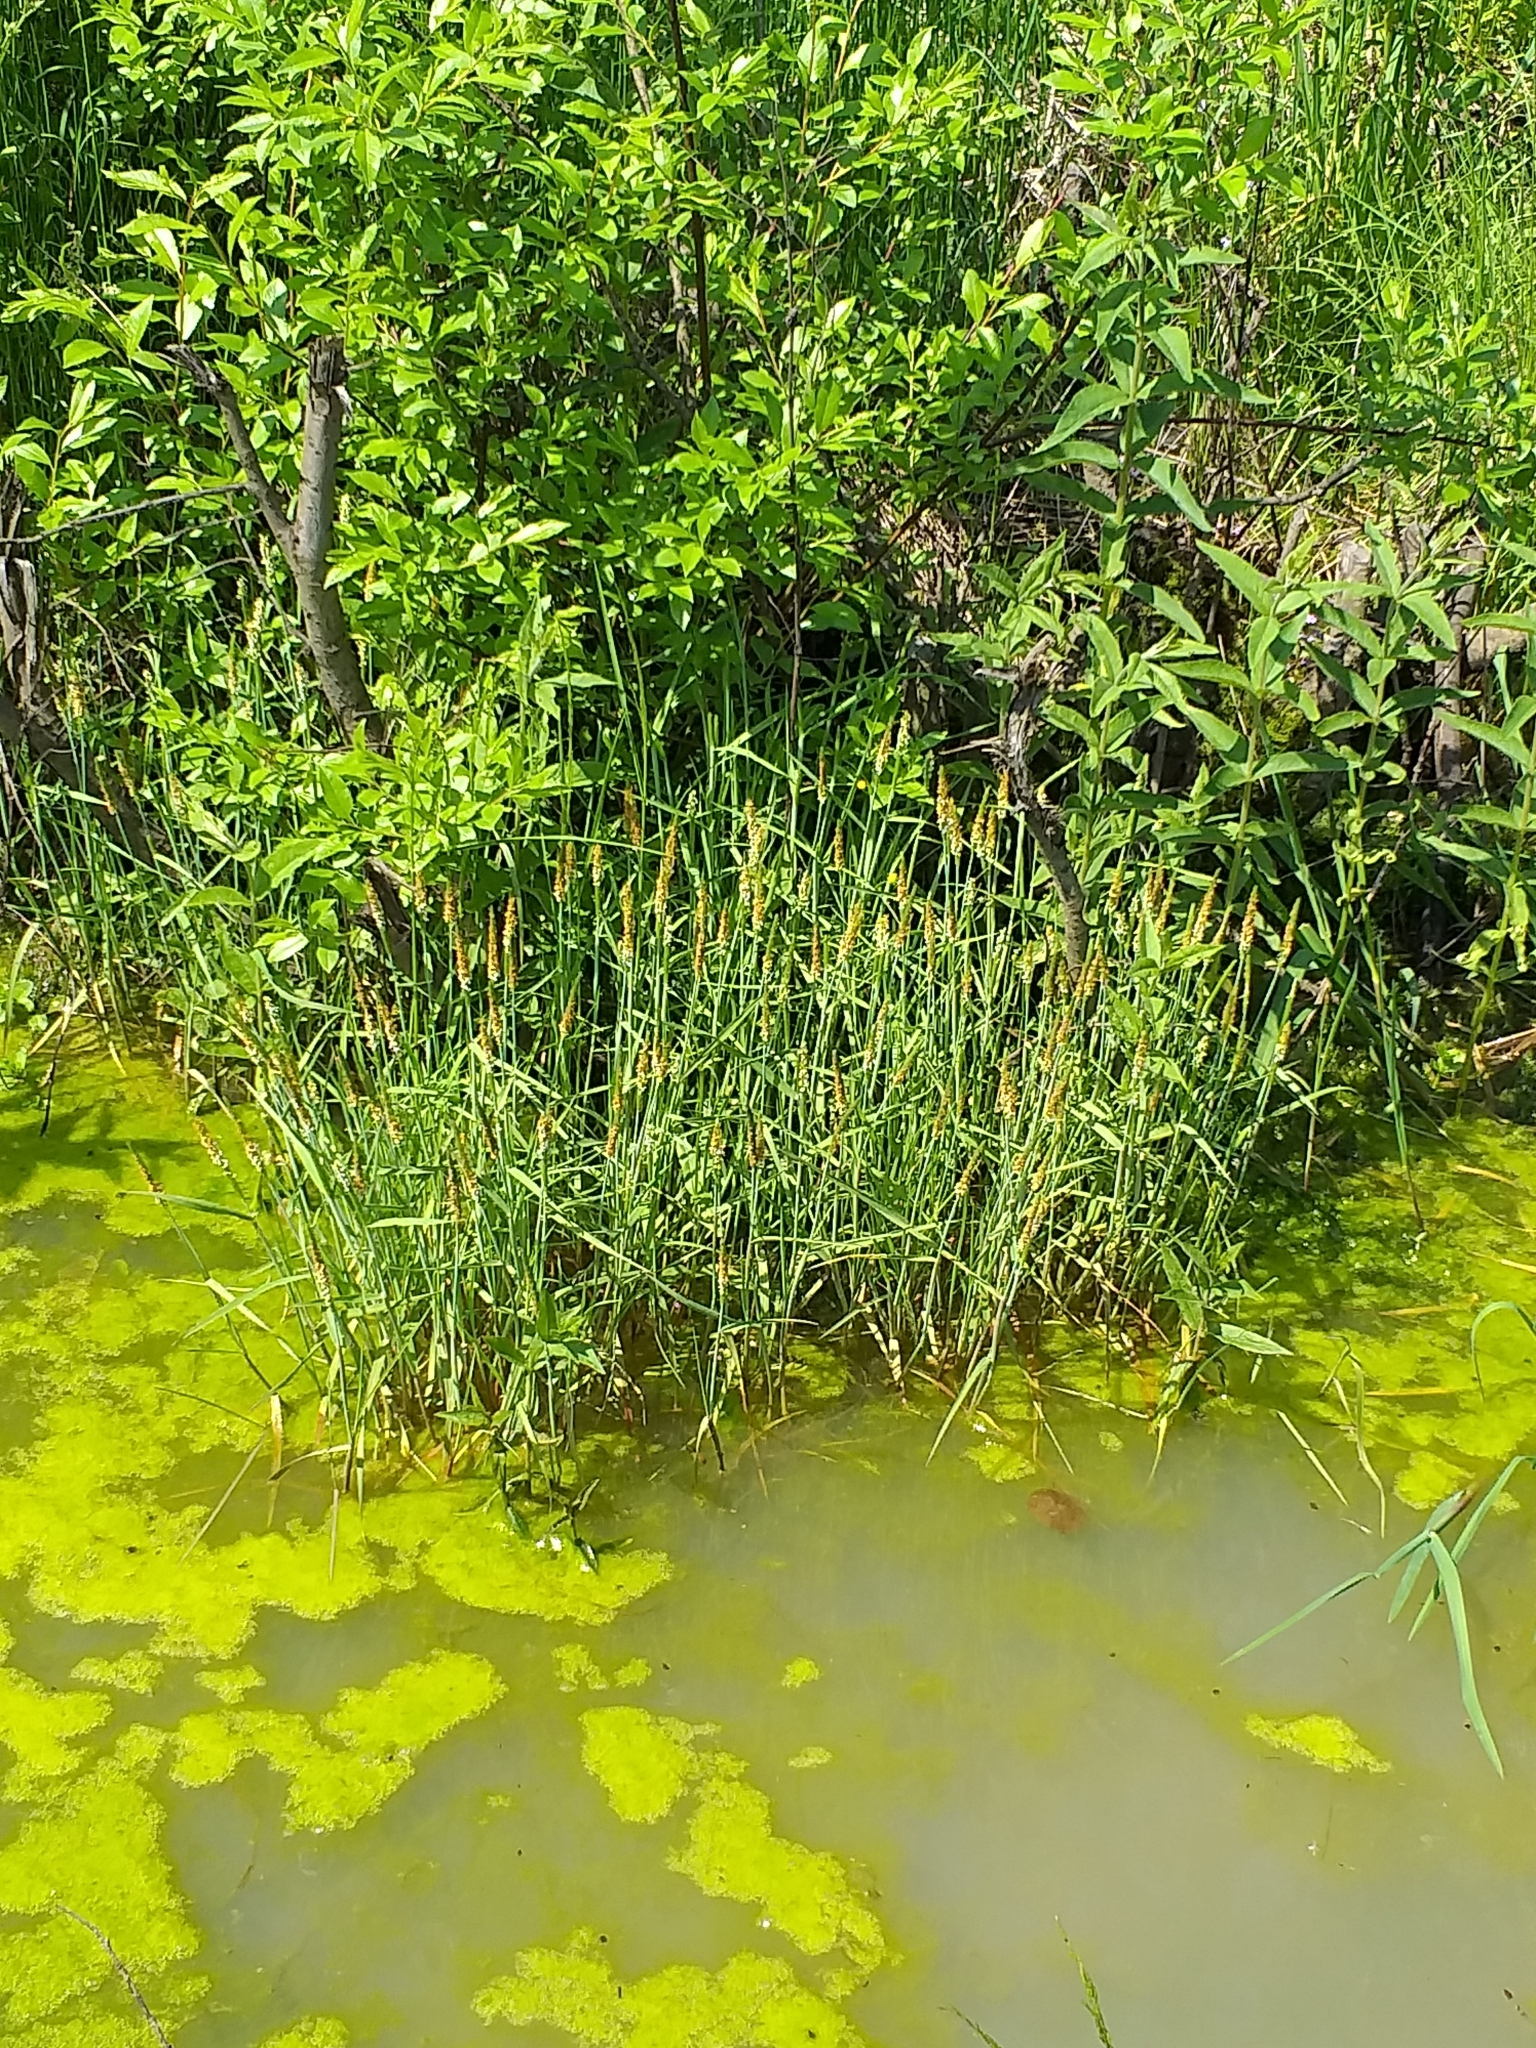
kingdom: Plantae
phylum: Tracheophyta
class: Liliopsida
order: Poales
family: Poaceae
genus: Alopecurus
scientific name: Alopecurus aequalis
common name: Orange foxtail
